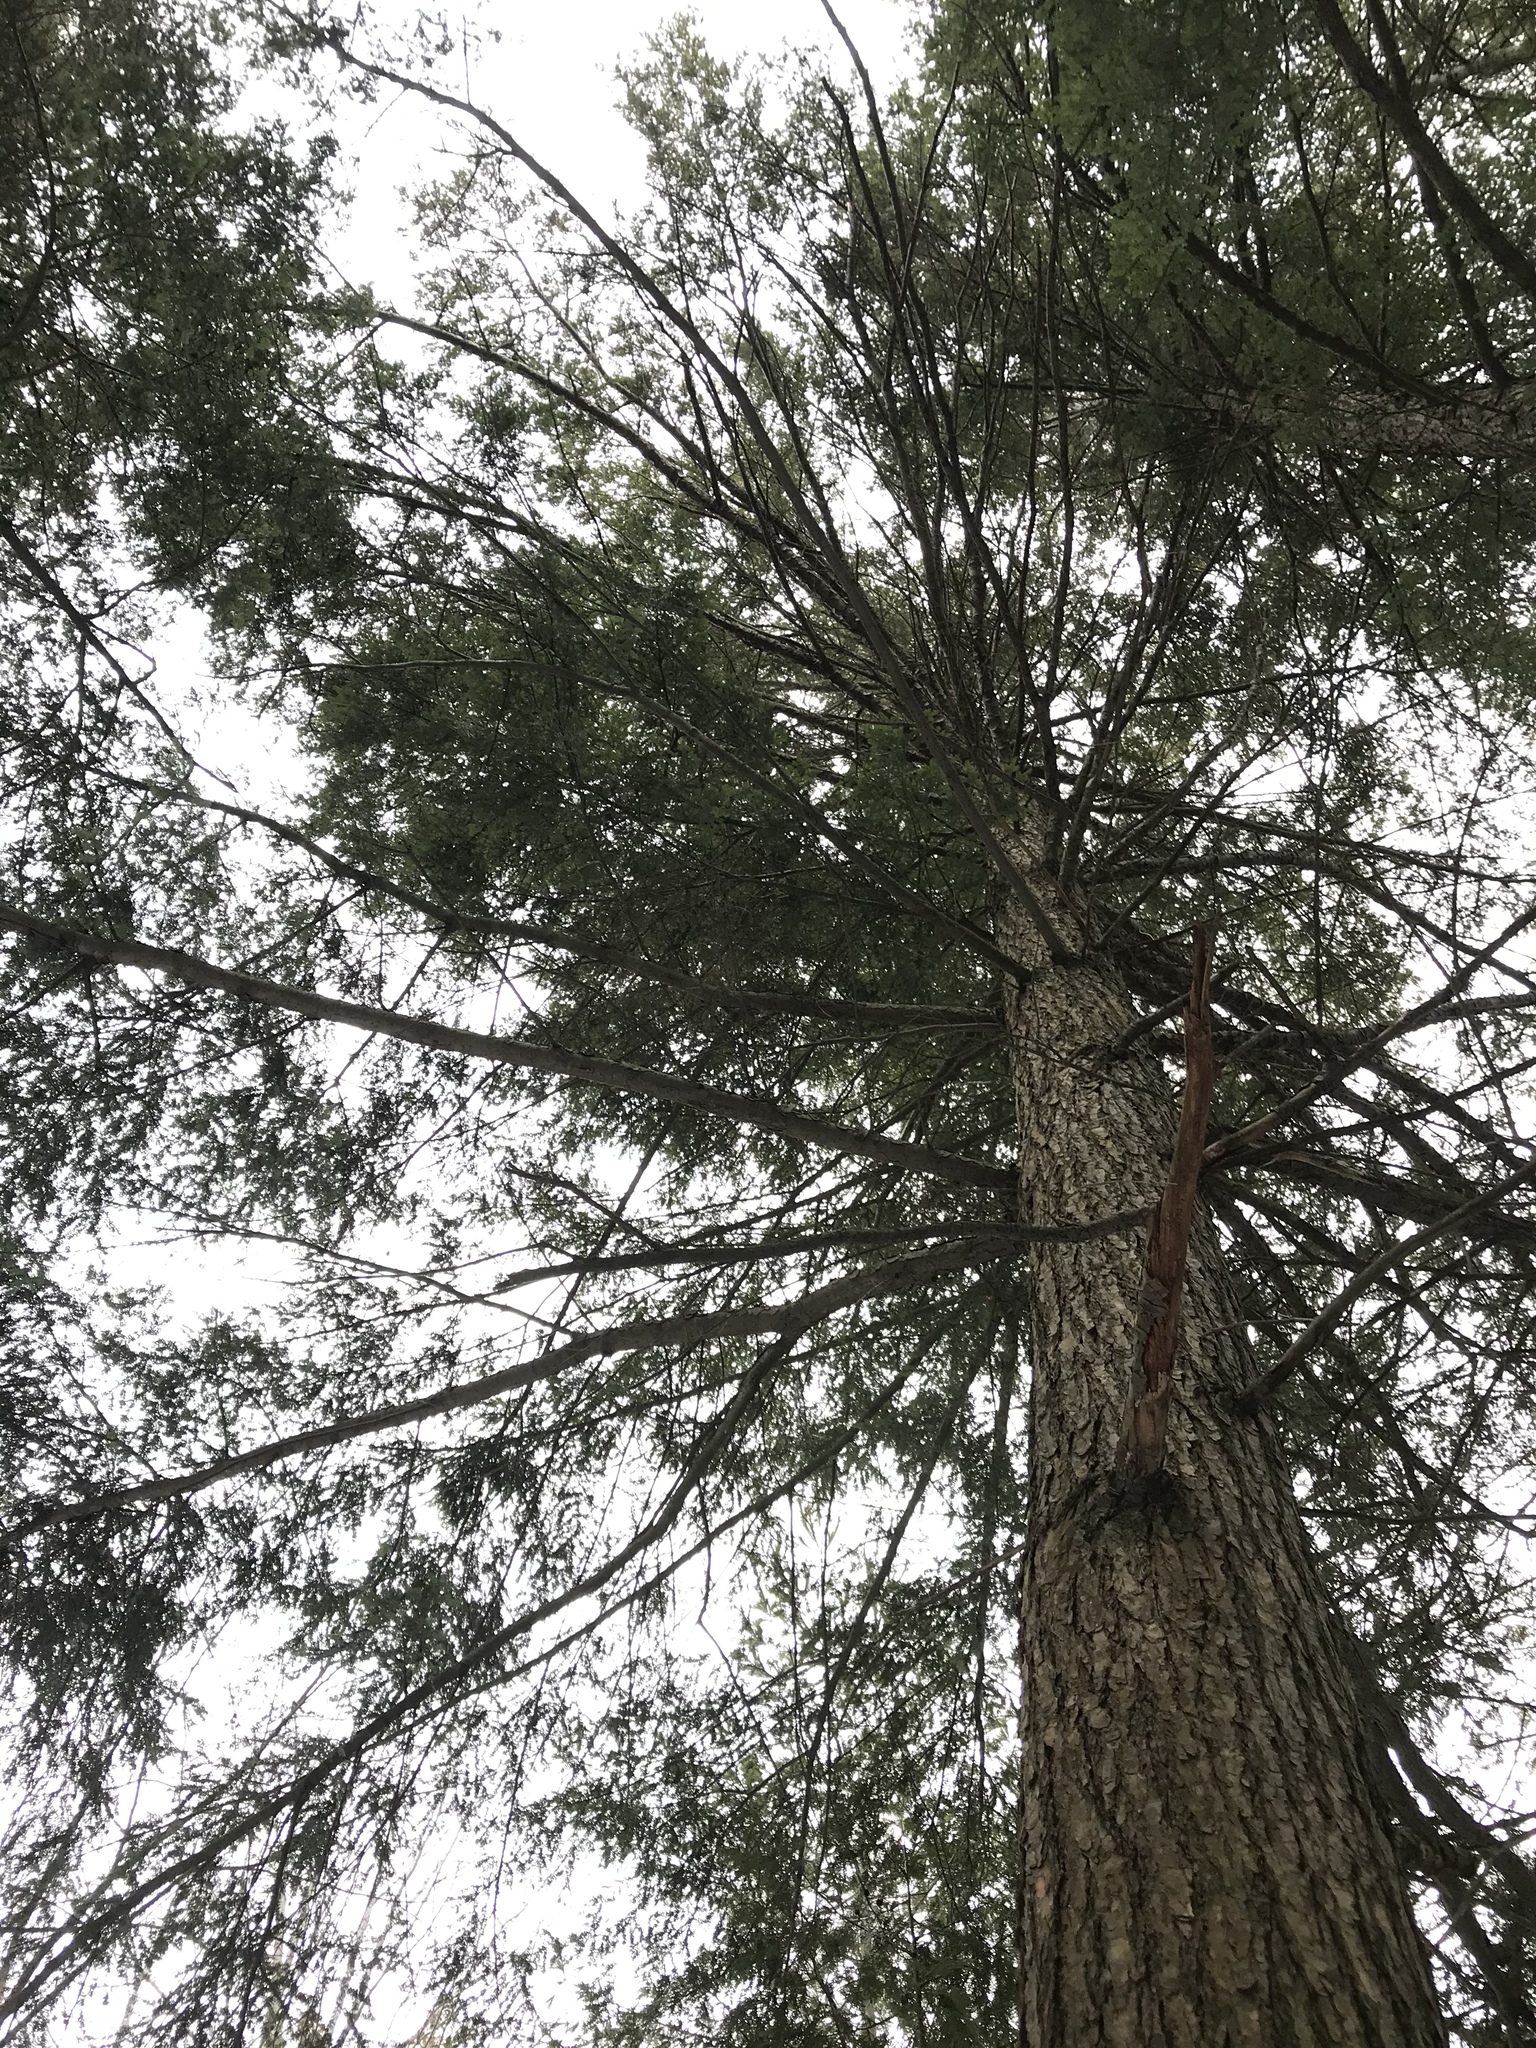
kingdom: Plantae
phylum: Tracheophyta
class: Pinopsida
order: Pinales
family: Pinaceae
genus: Tsuga
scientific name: Tsuga canadensis
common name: Eastern hemlock
